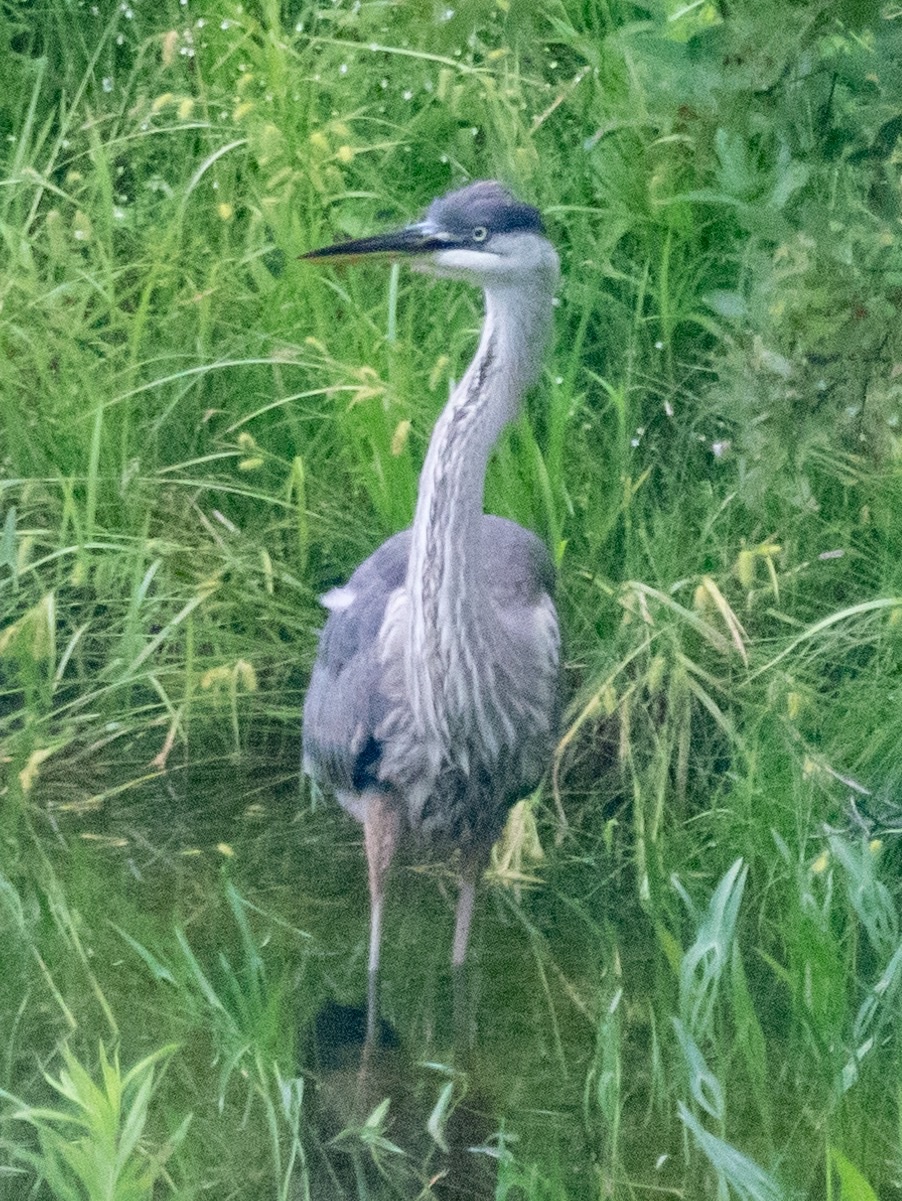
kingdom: Animalia
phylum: Chordata
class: Aves
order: Pelecaniformes
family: Ardeidae
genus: Ardea
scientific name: Ardea herodias
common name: Great blue heron
